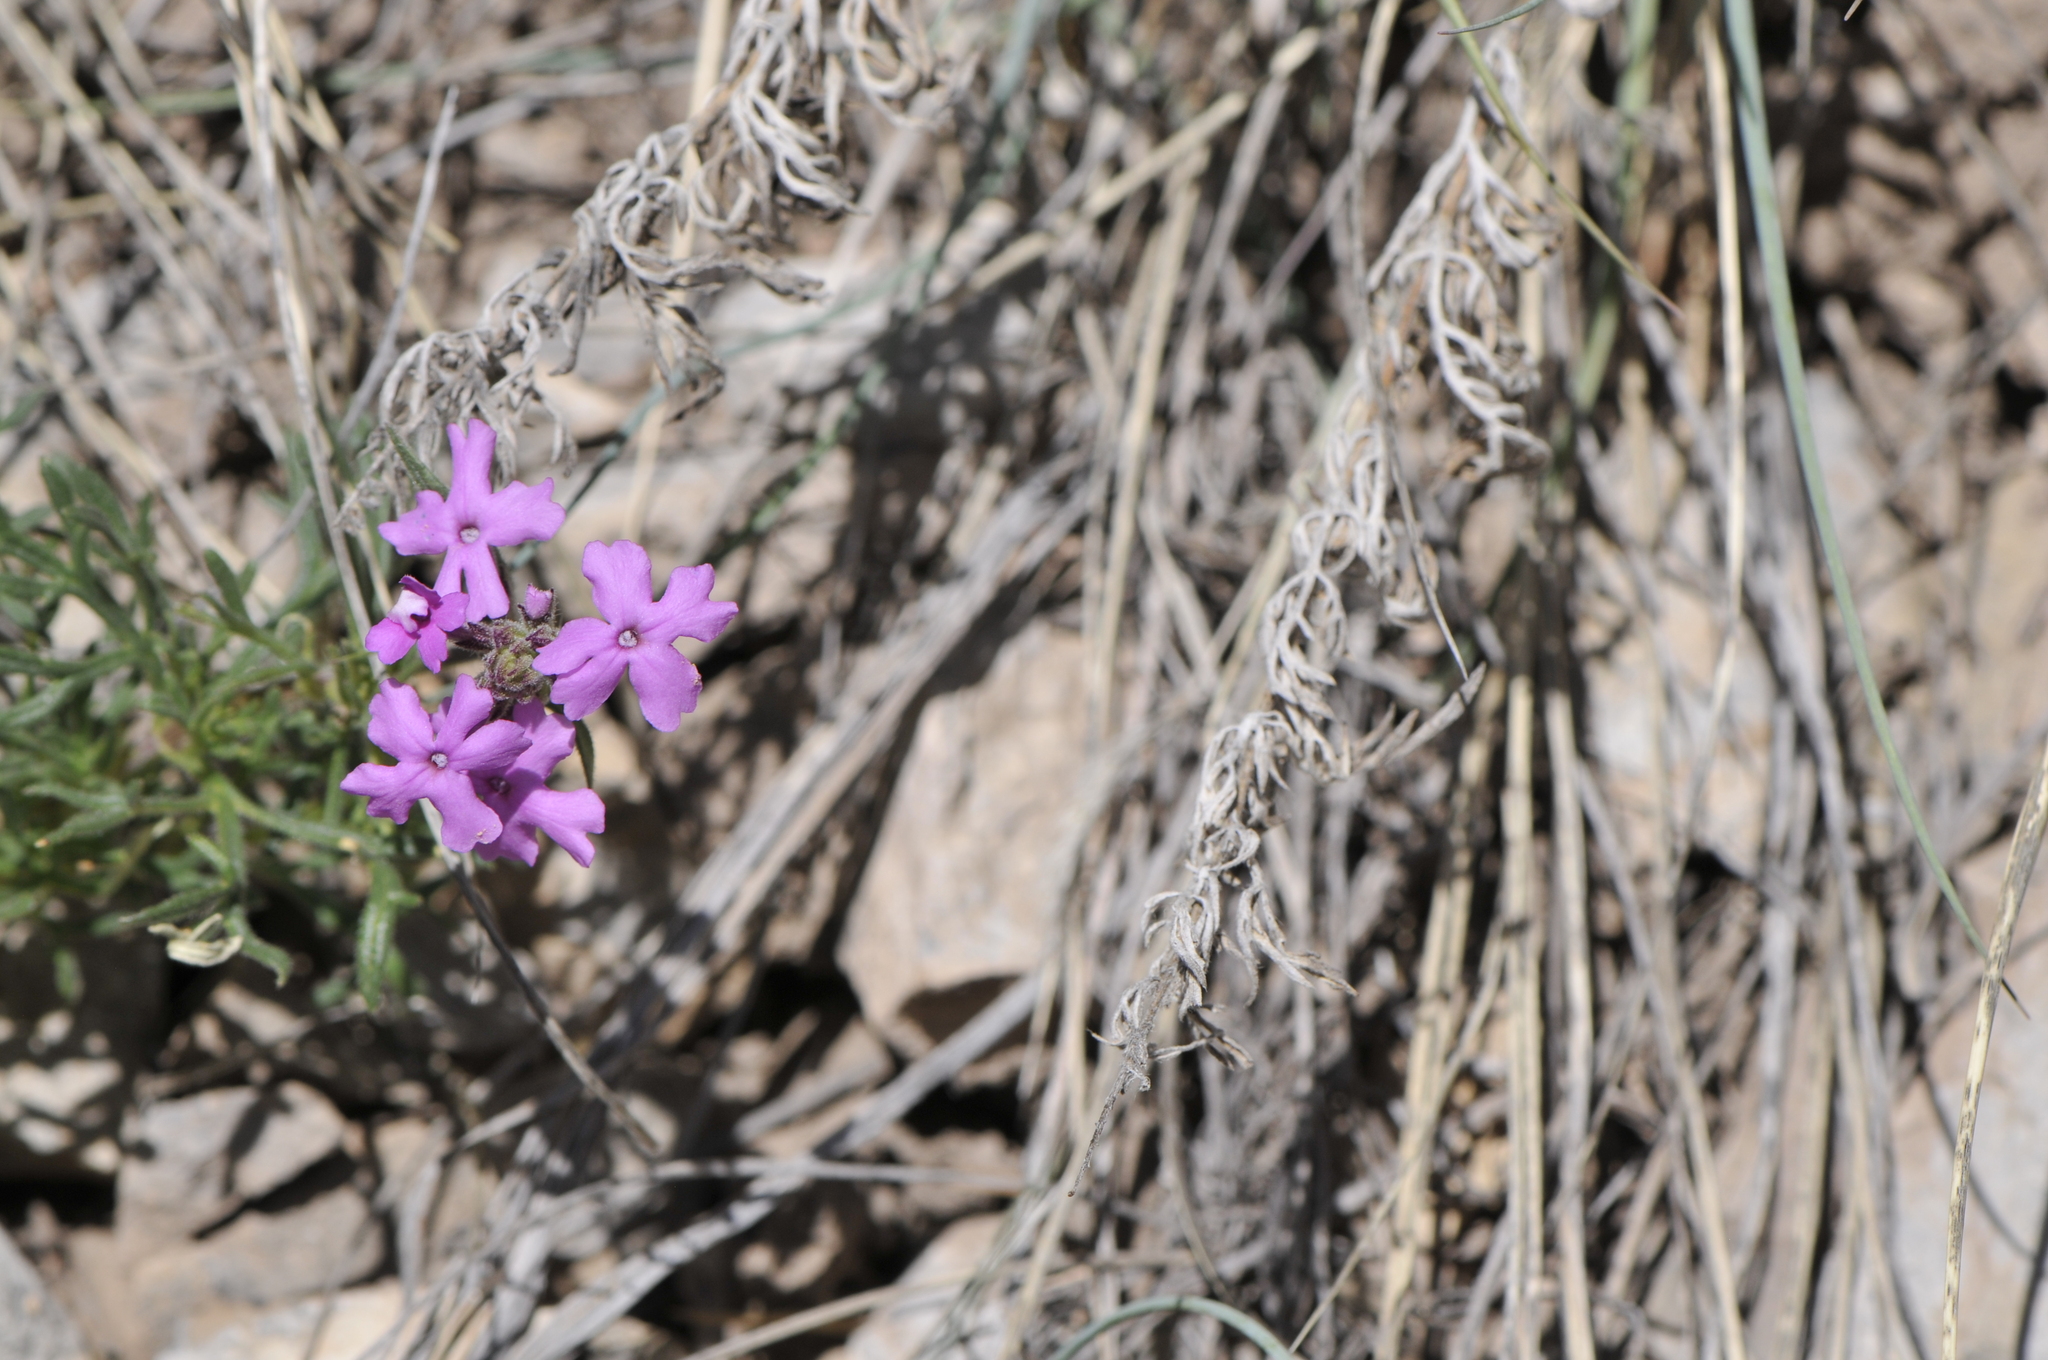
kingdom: Plantae
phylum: Tracheophyta
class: Magnoliopsida
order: Lamiales
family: Verbenaceae
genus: Verbena
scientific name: Verbena bipinnatifida
